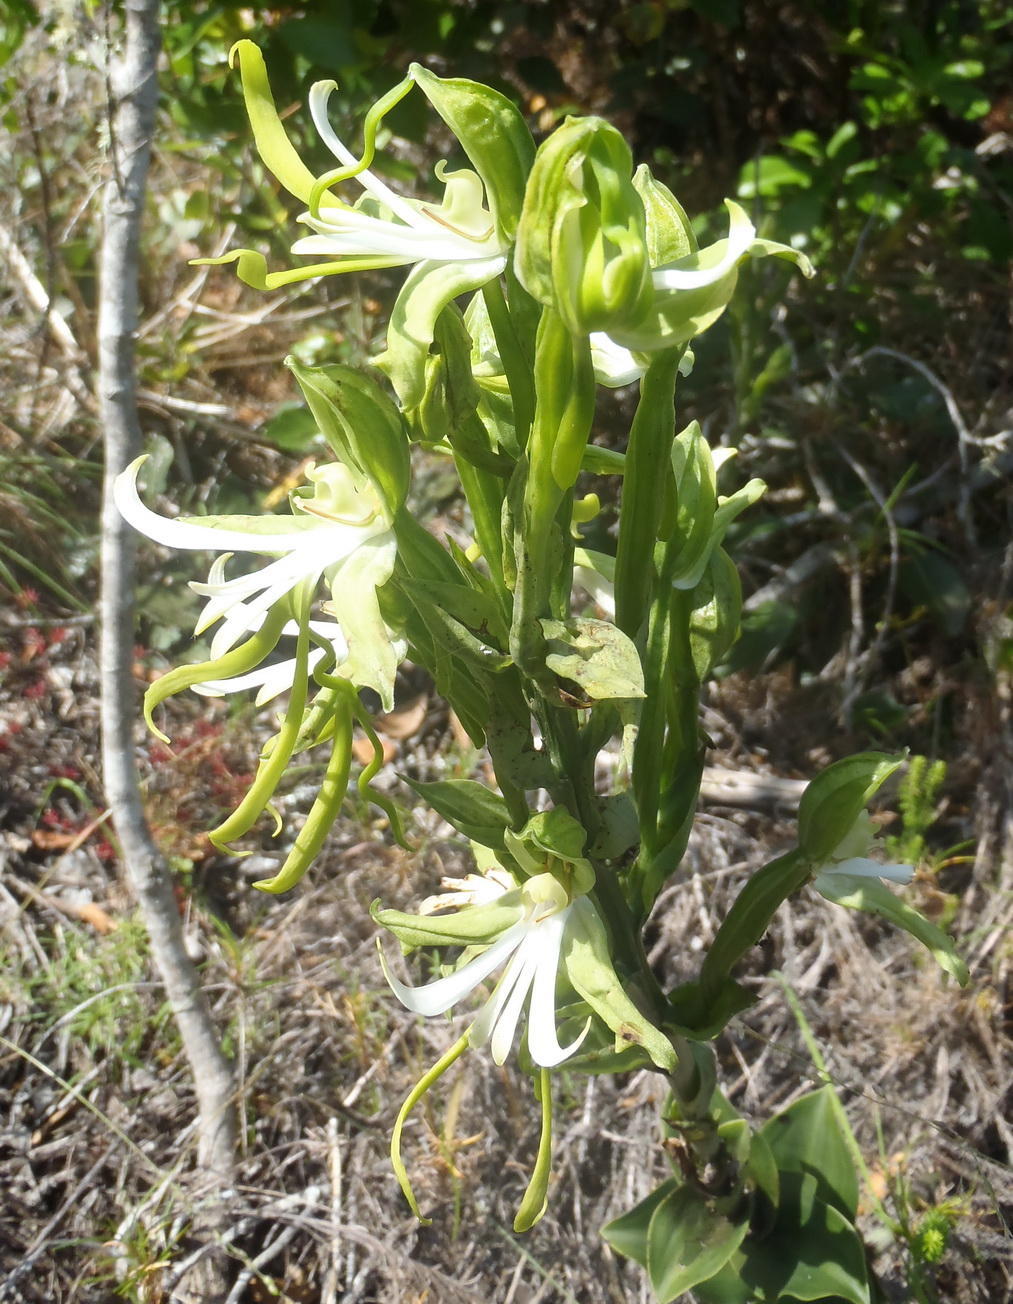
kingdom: Plantae
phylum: Tracheophyta
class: Liliopsida
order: Asparagales
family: Orchidaceae
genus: Bonatea
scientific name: Bonatea speciosa
